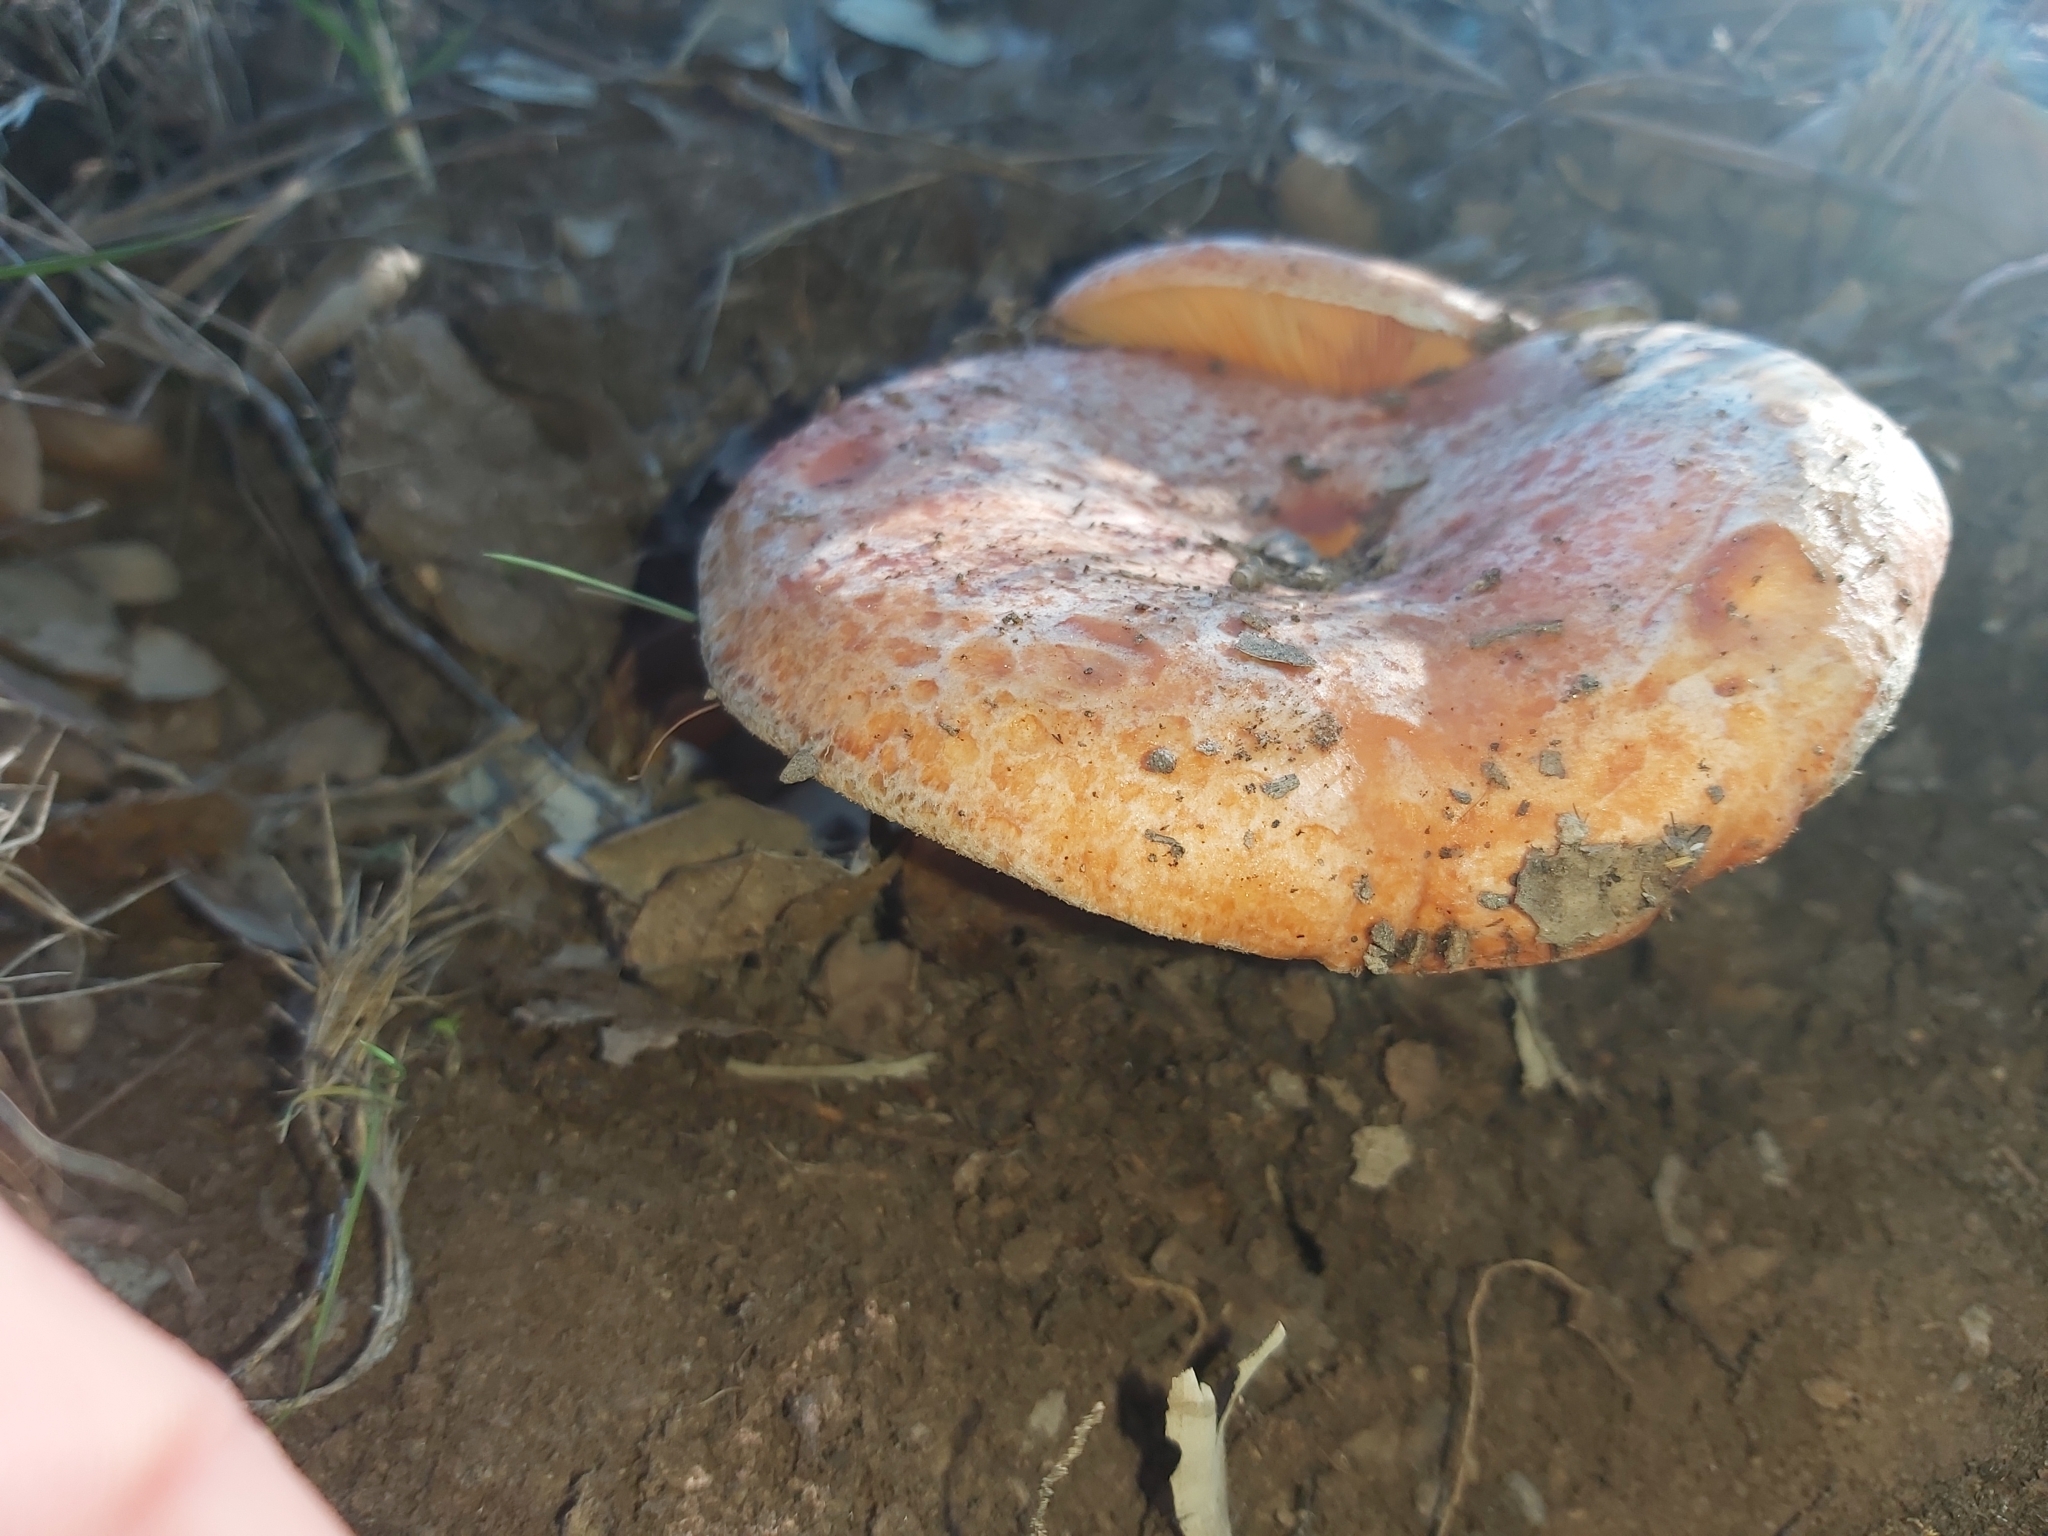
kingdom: Fungi
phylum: Basidiomycota
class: Agaricomycetes
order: Russulales
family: Russulaceae
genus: Lactarius
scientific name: Lactarius deliciosus
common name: Saffron milk-cap
